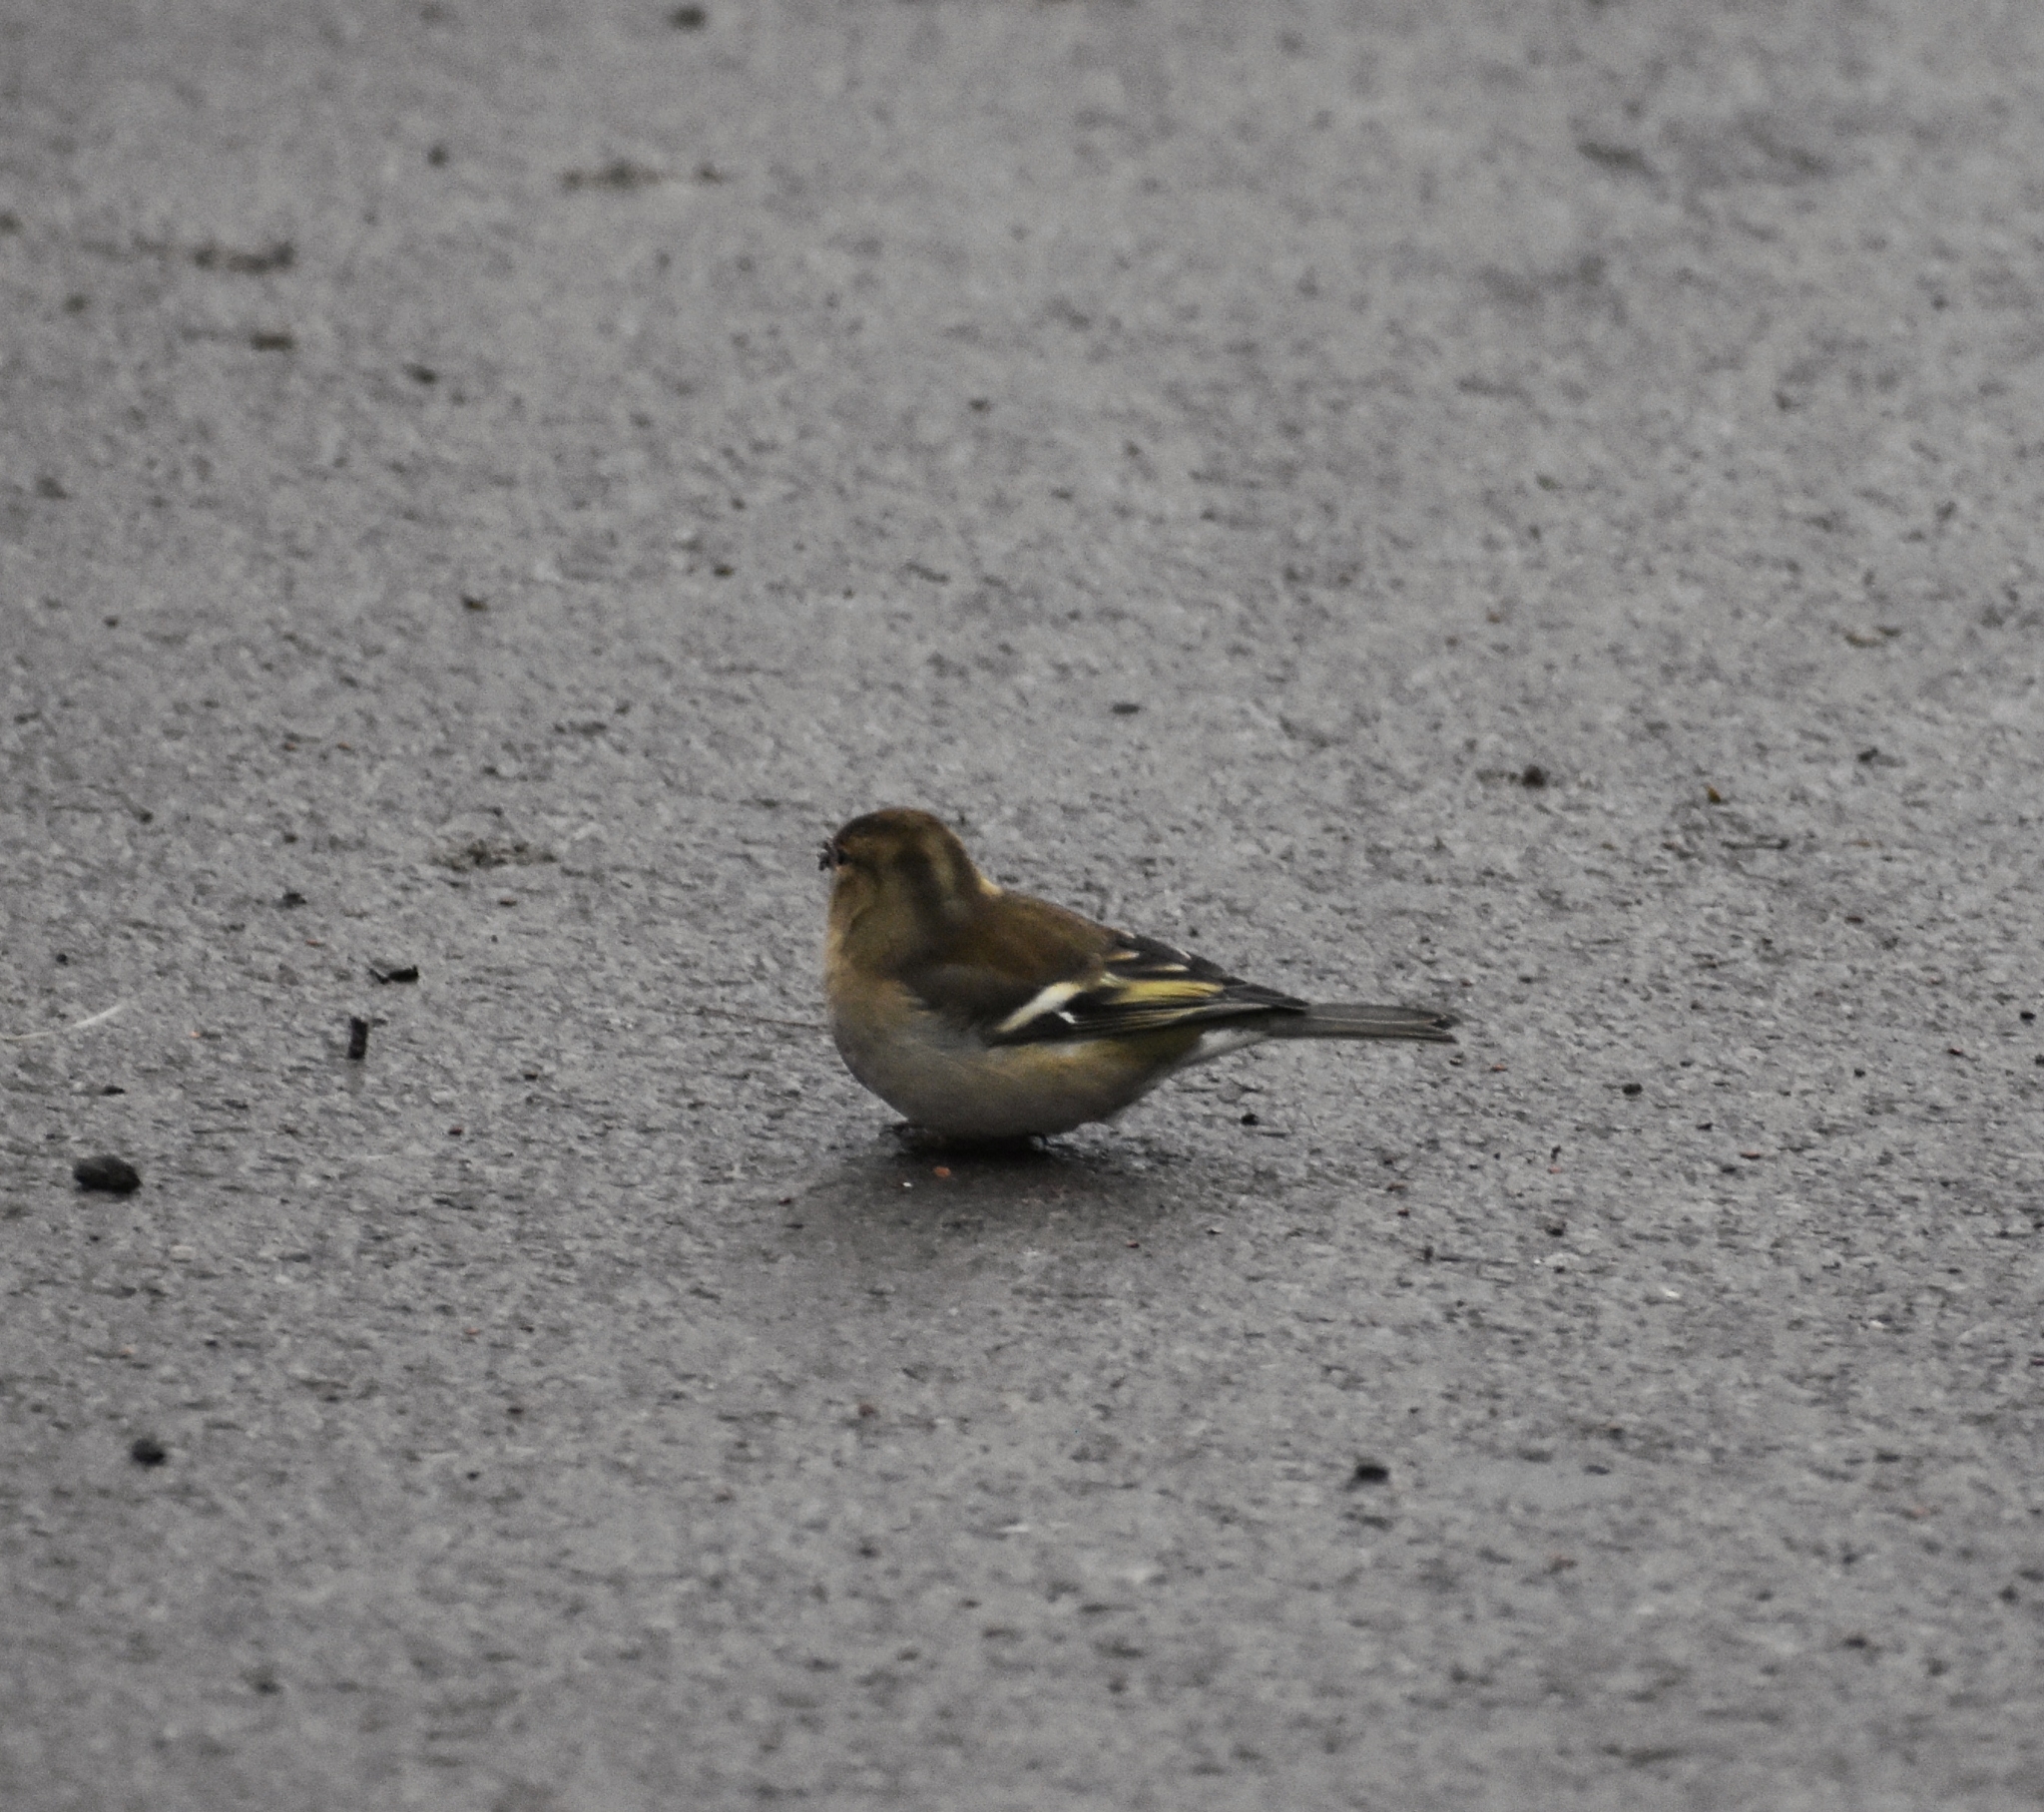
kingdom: Animalia
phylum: Chordata
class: Aves
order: Passeriformes
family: Fringillidae
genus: Fringilla
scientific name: Fringilla coelebs
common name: Common chaffinch
